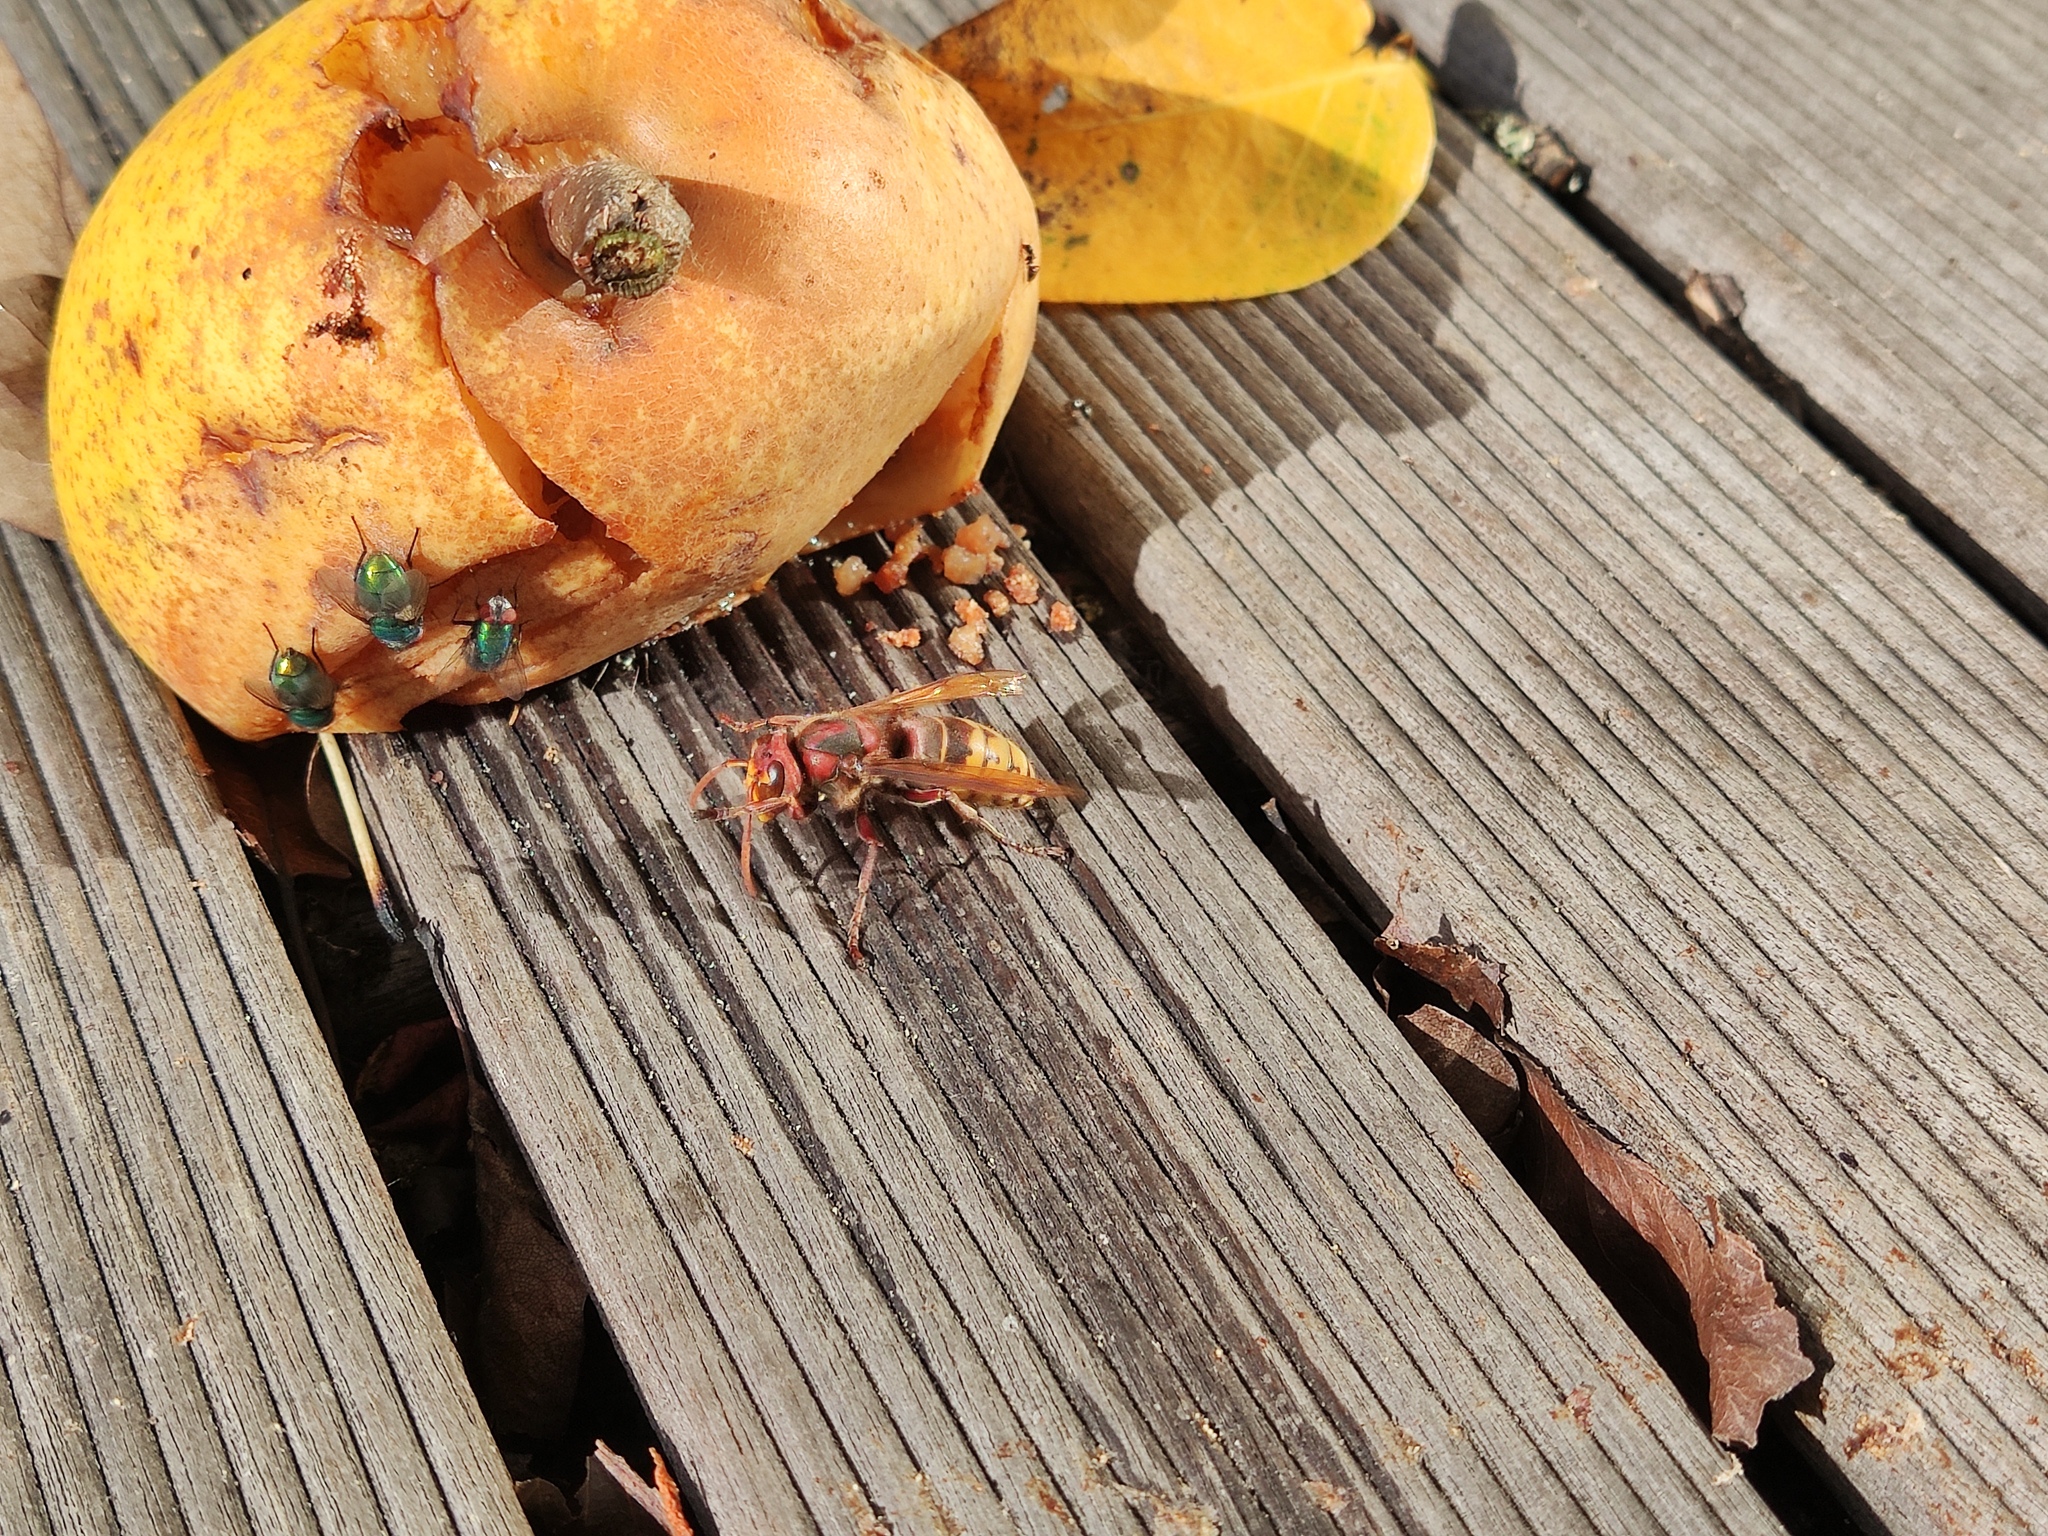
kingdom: Animalia
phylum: Arthropoda
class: Insecta
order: Hymenoptera
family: Vespidae
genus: Vespa
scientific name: Vespa crabro
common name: Hornet
